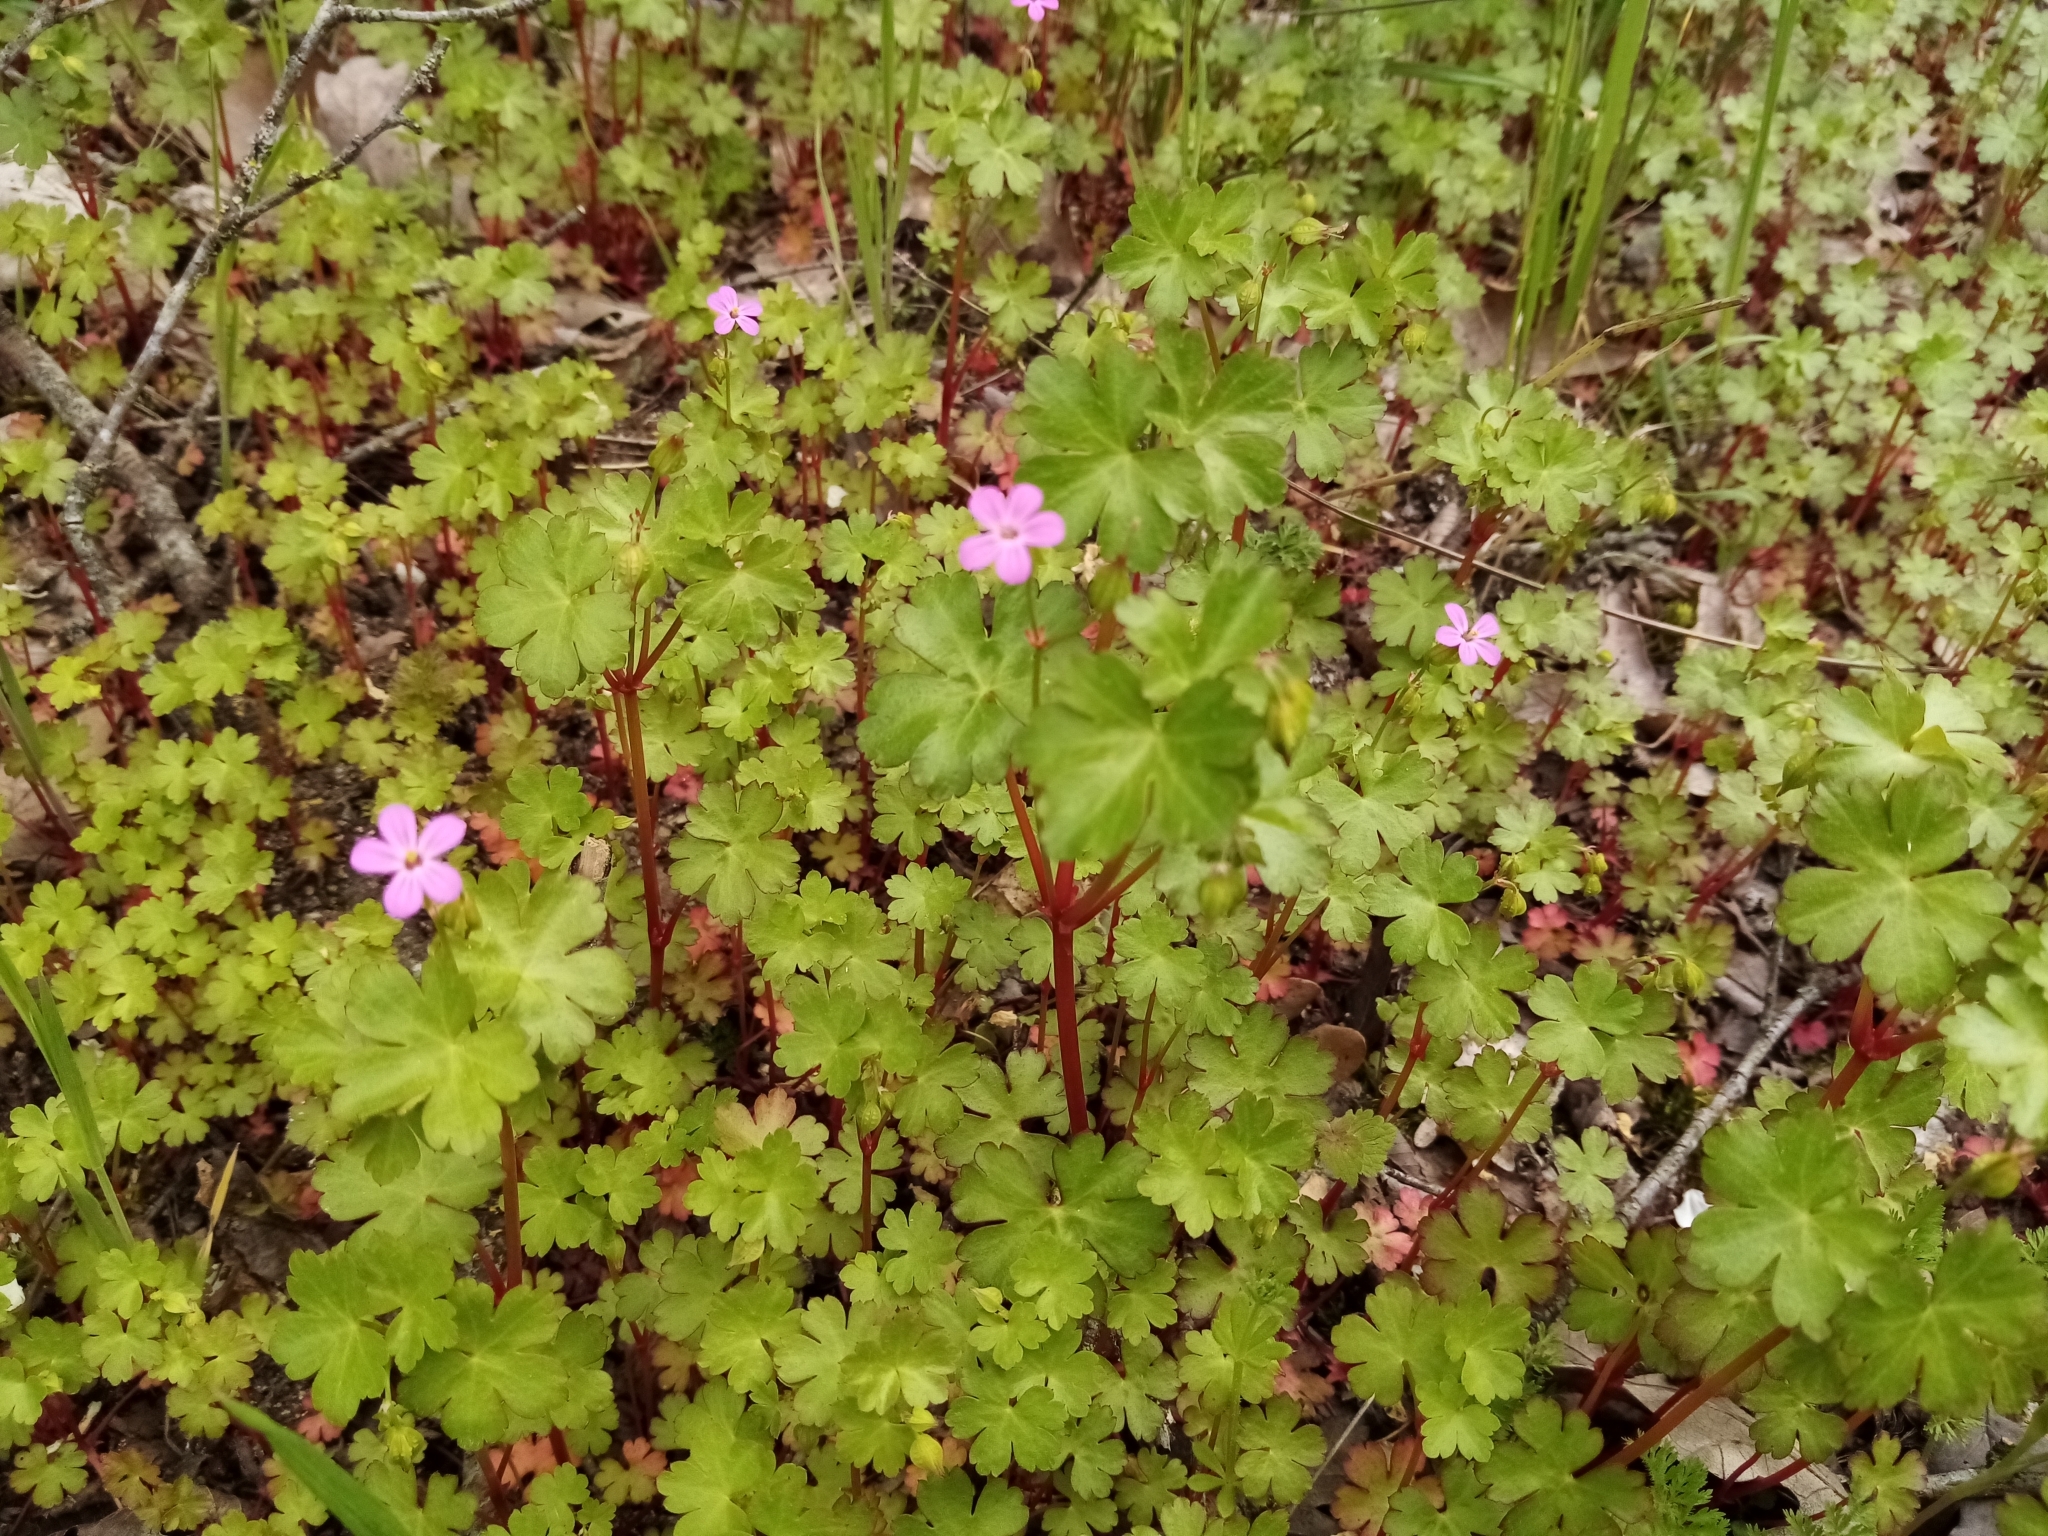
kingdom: Plantae
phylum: Tracheophyta
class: Magnoliopsida
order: Geraniales
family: Geraniaceae
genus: Geranium
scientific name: Geranium lucidum
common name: Shining crane's-bill
